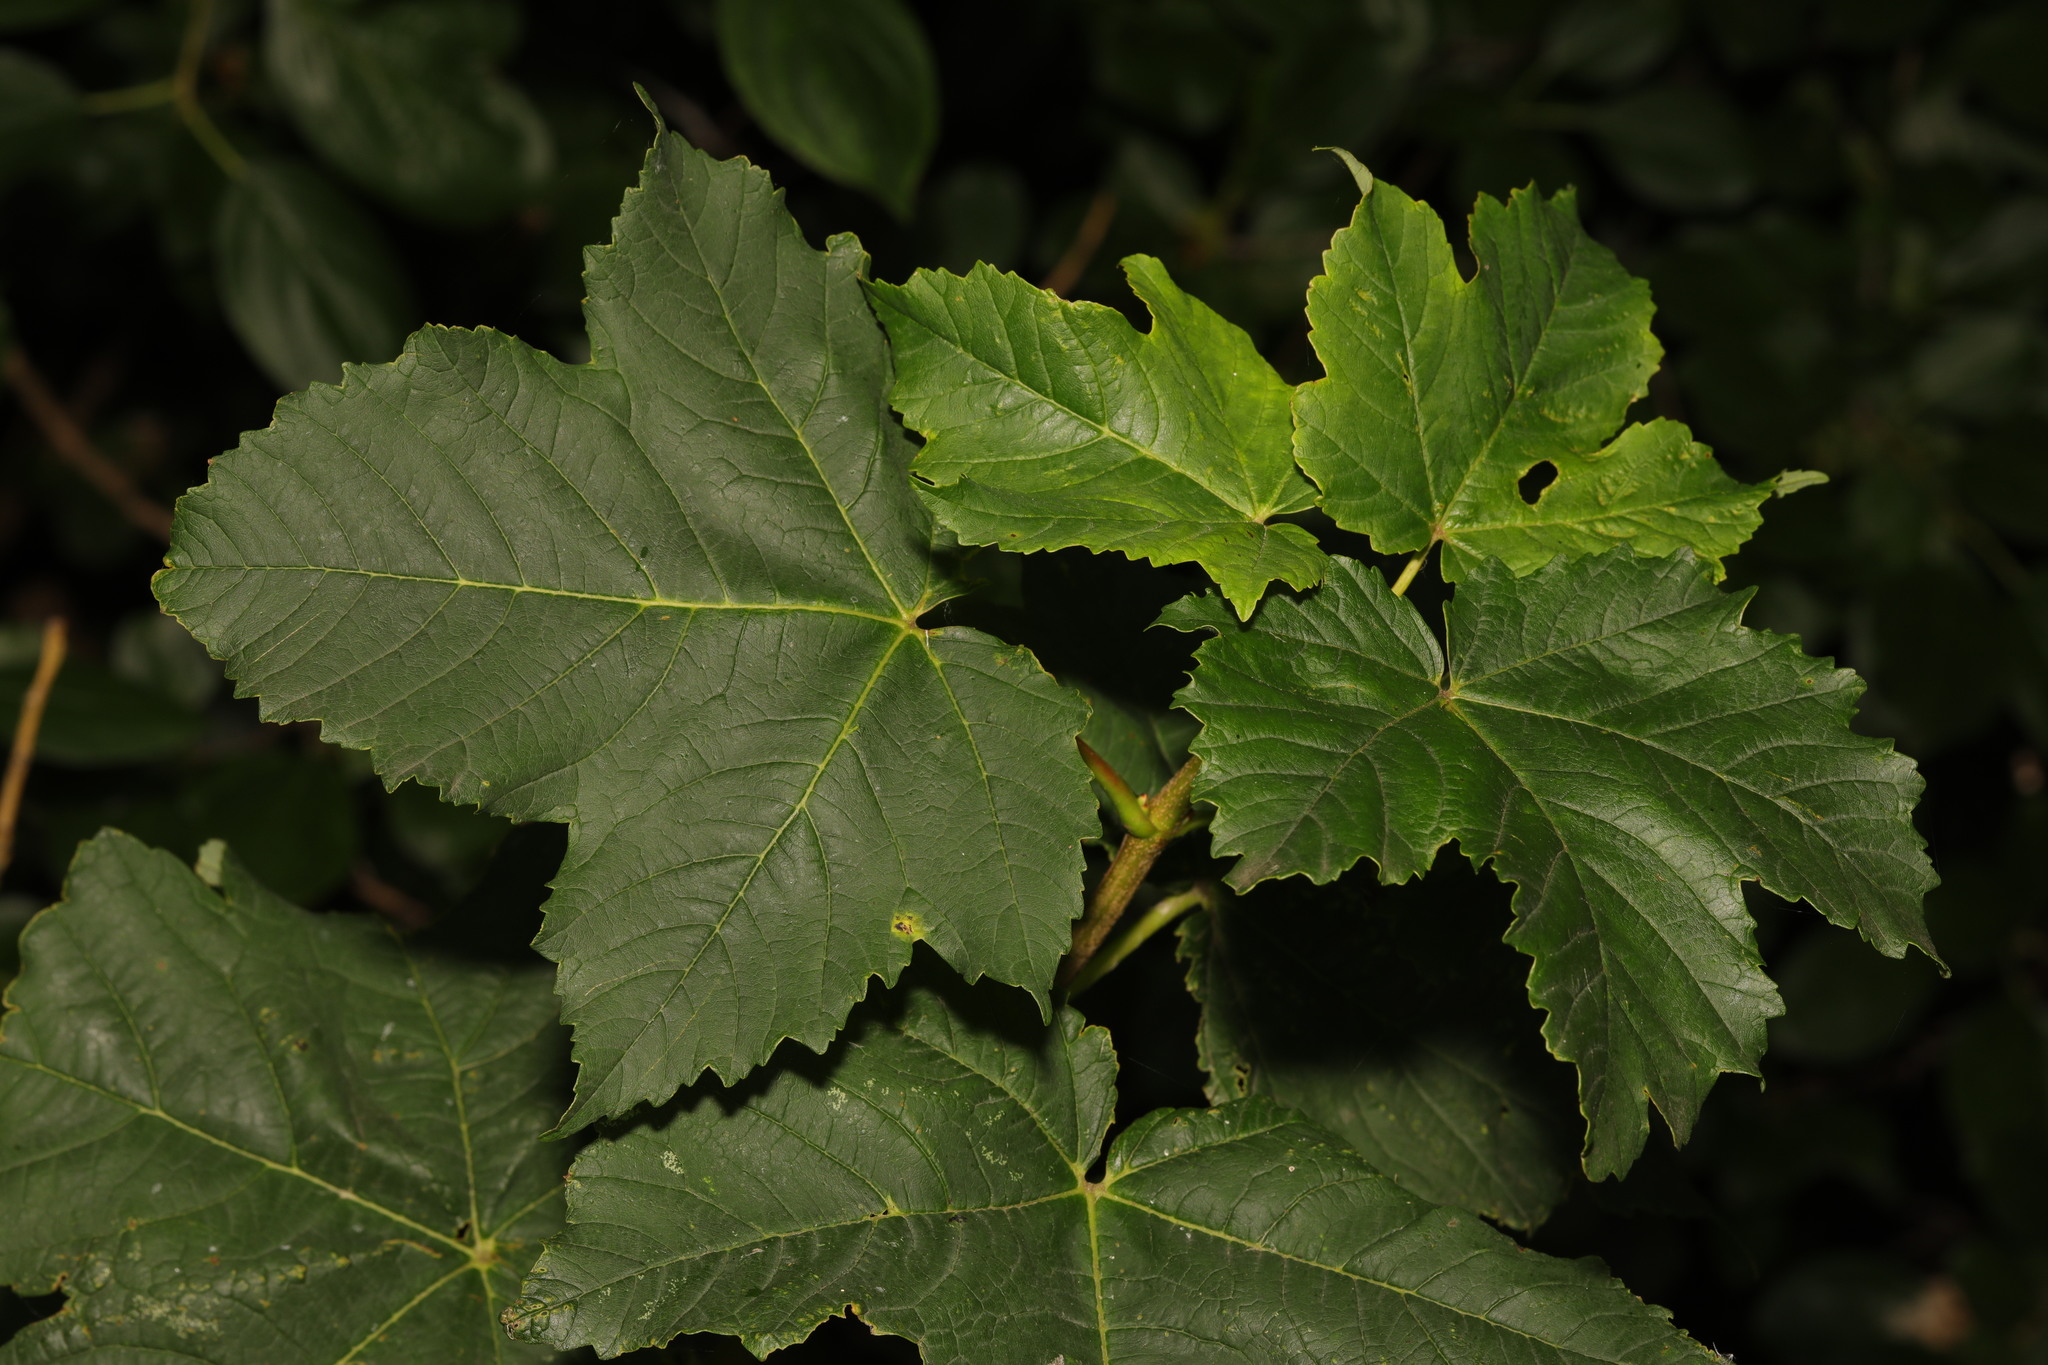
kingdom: Plantae
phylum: Tracheophyta
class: Magnoliopsida
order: Sapindales
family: Sapindaceae
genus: Acer
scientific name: Acer pseudoplatanus
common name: Sycamore
